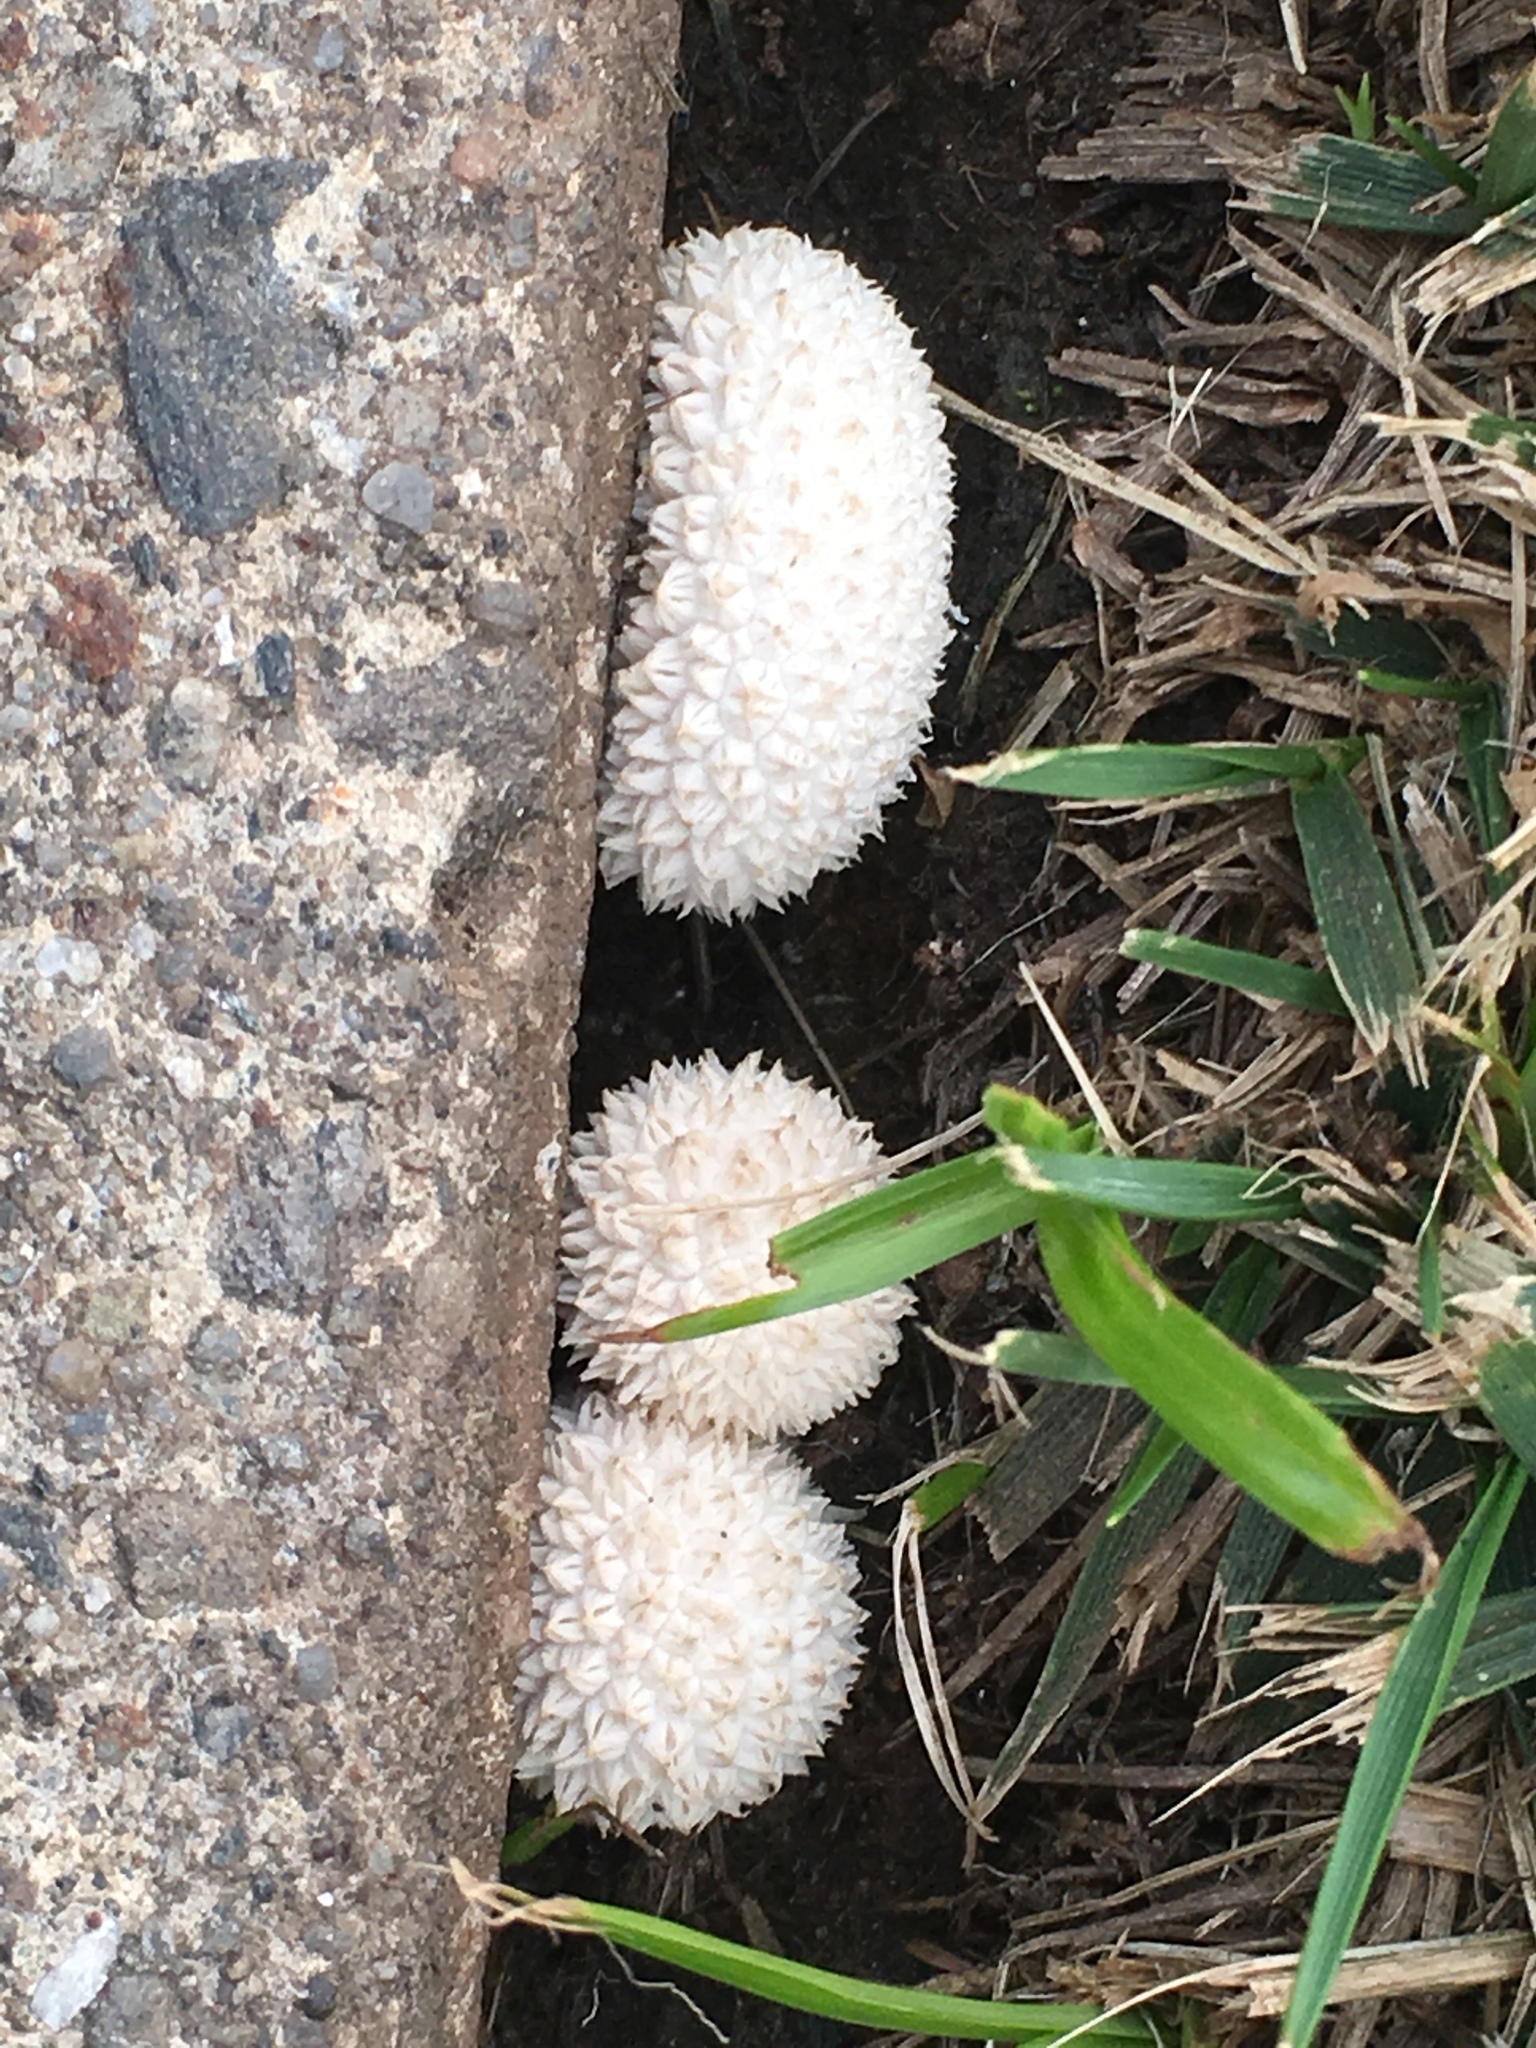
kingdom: Fungi
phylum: Basidiomycota
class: Agaricomycetes
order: Agaricales
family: Lycoperdaceae
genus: Lycoperdon
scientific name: Lycoperdon perlatum
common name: Common puffball
